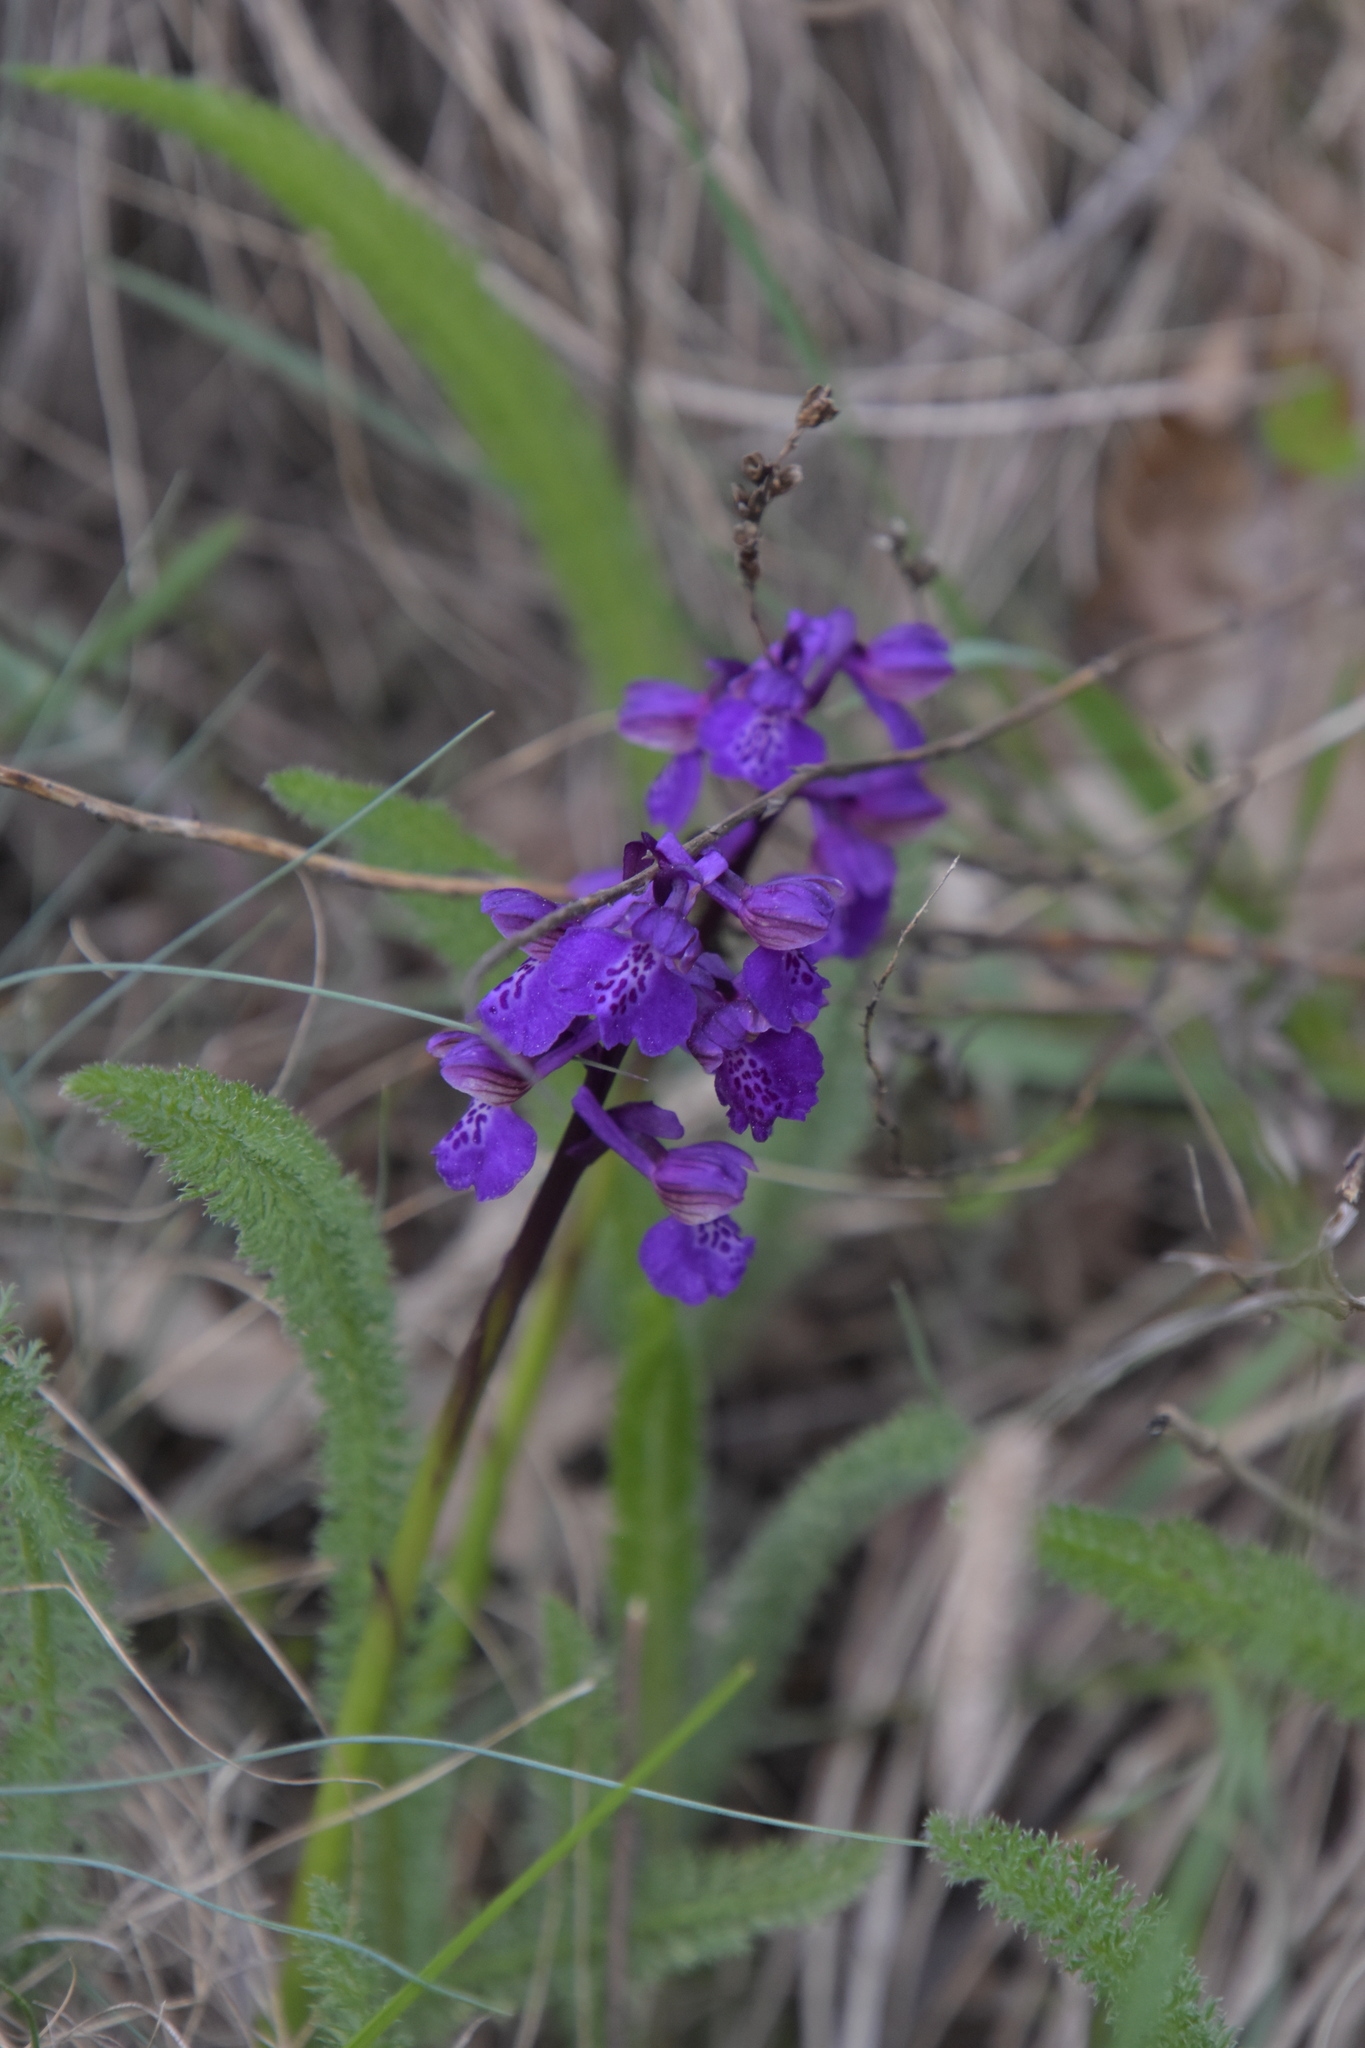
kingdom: Plantae
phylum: Tracheophyta
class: Liliopsida
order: Asparagales
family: Orchidaceae
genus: Anacamptis
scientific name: Anacamptis morio
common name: Green-winged orchid
